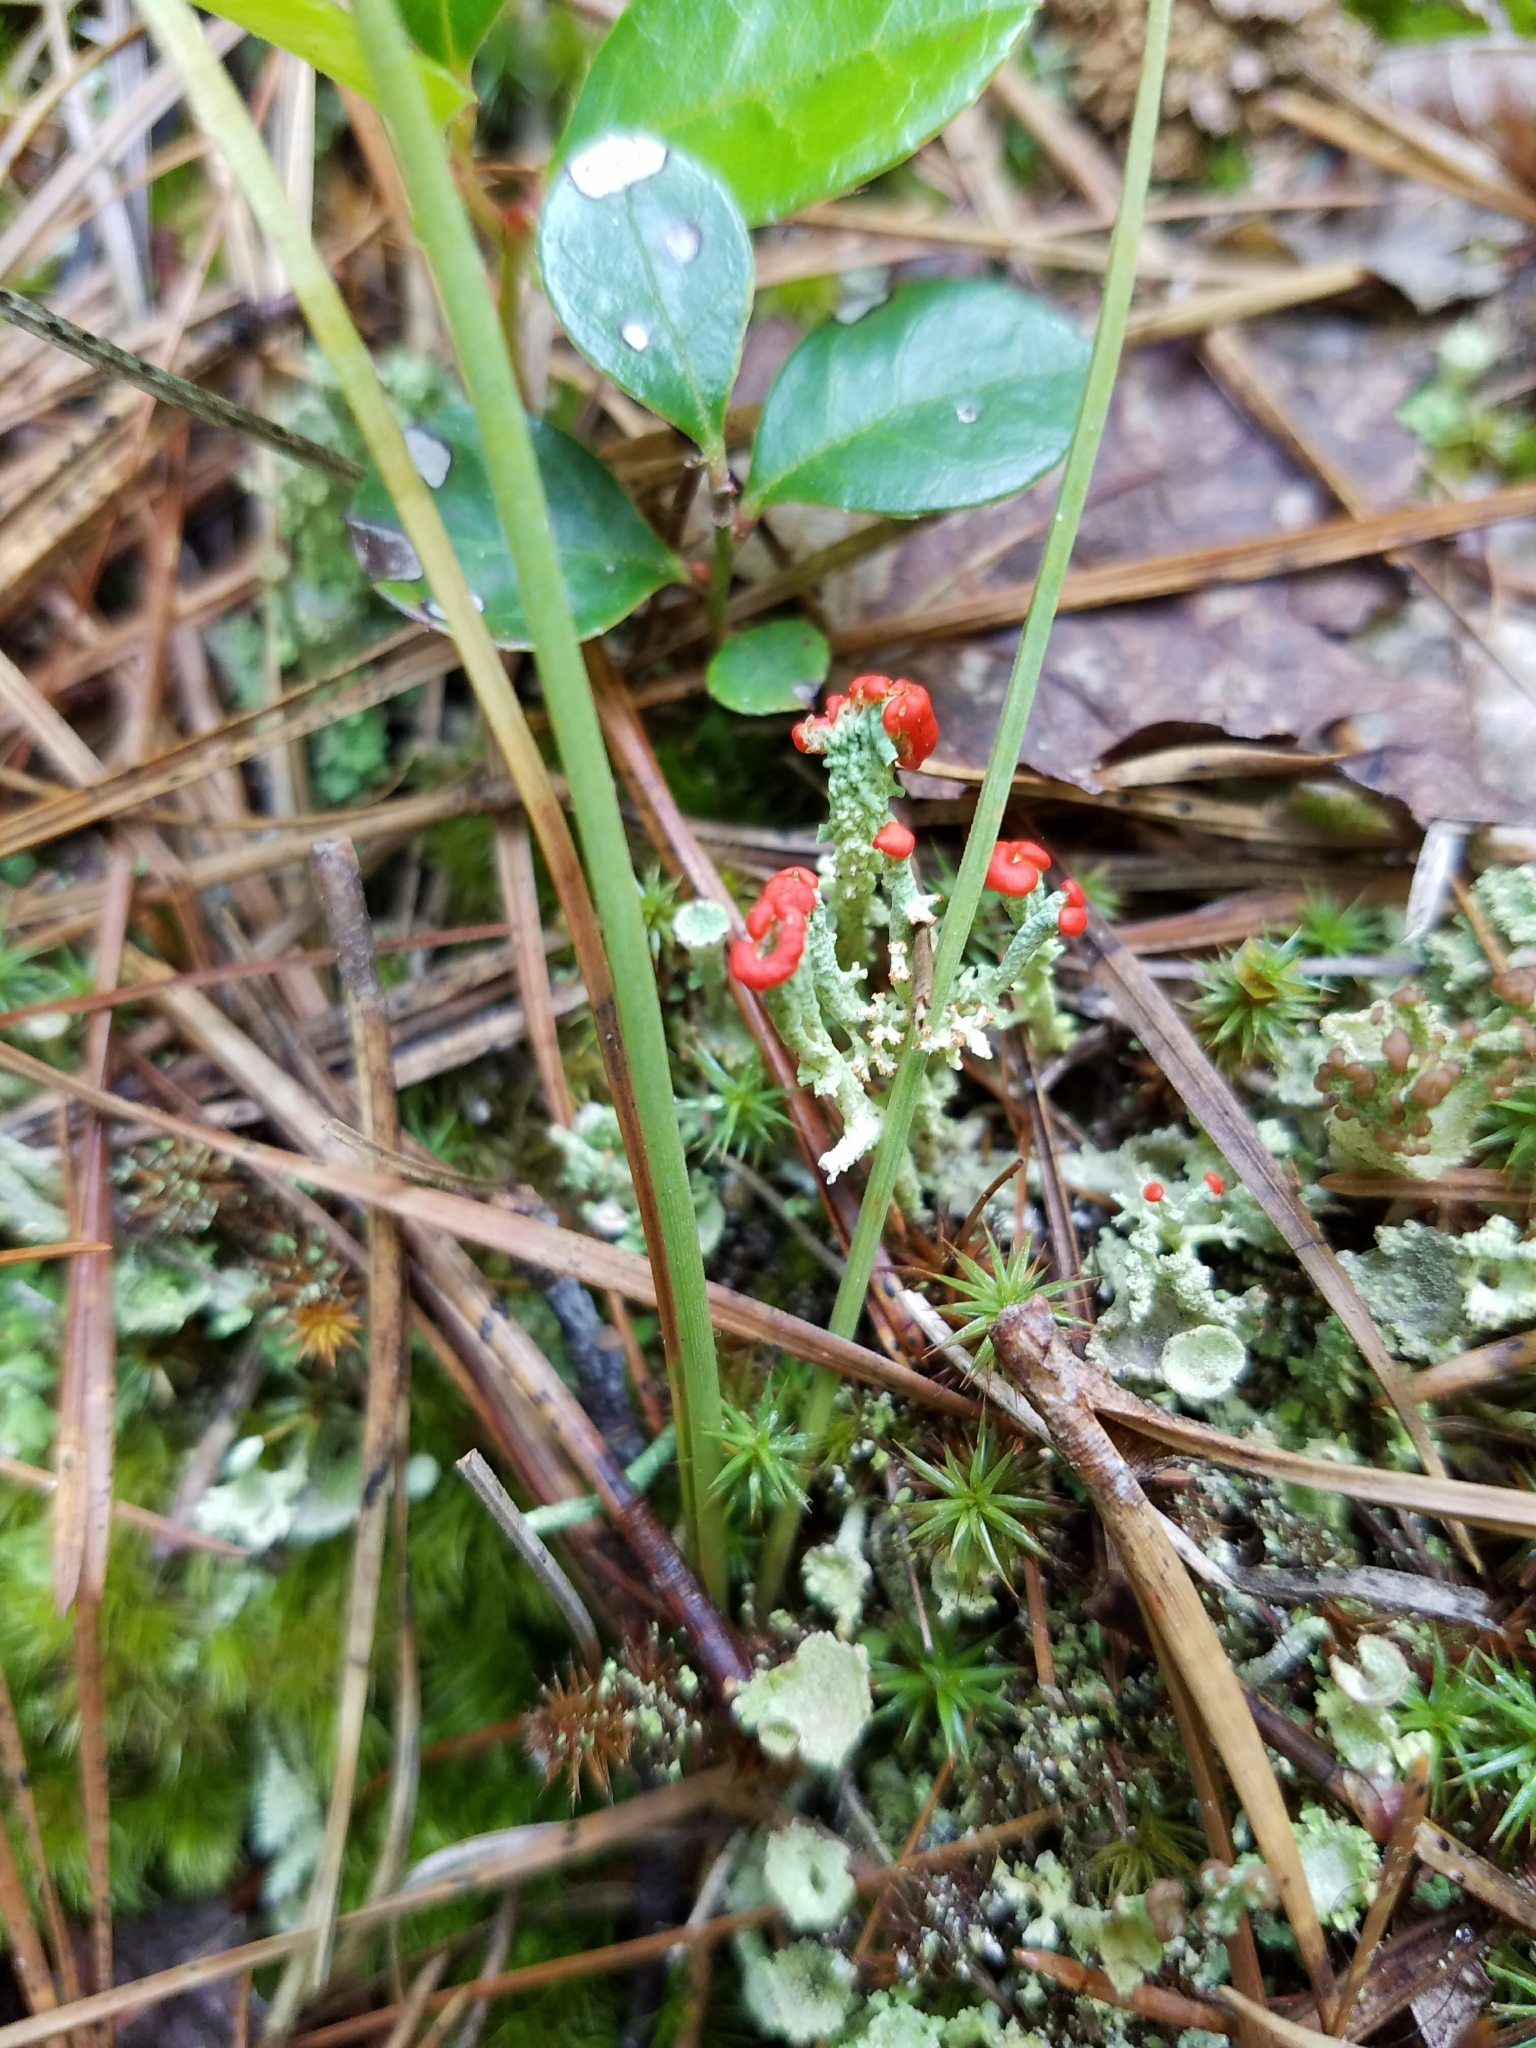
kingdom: Fungi
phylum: Ascomycota
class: Lecanoromycetes
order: Lecanorales
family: Cladoniaceae
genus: Cladonia
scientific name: Cladonia cristatella
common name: British soldier lichen
